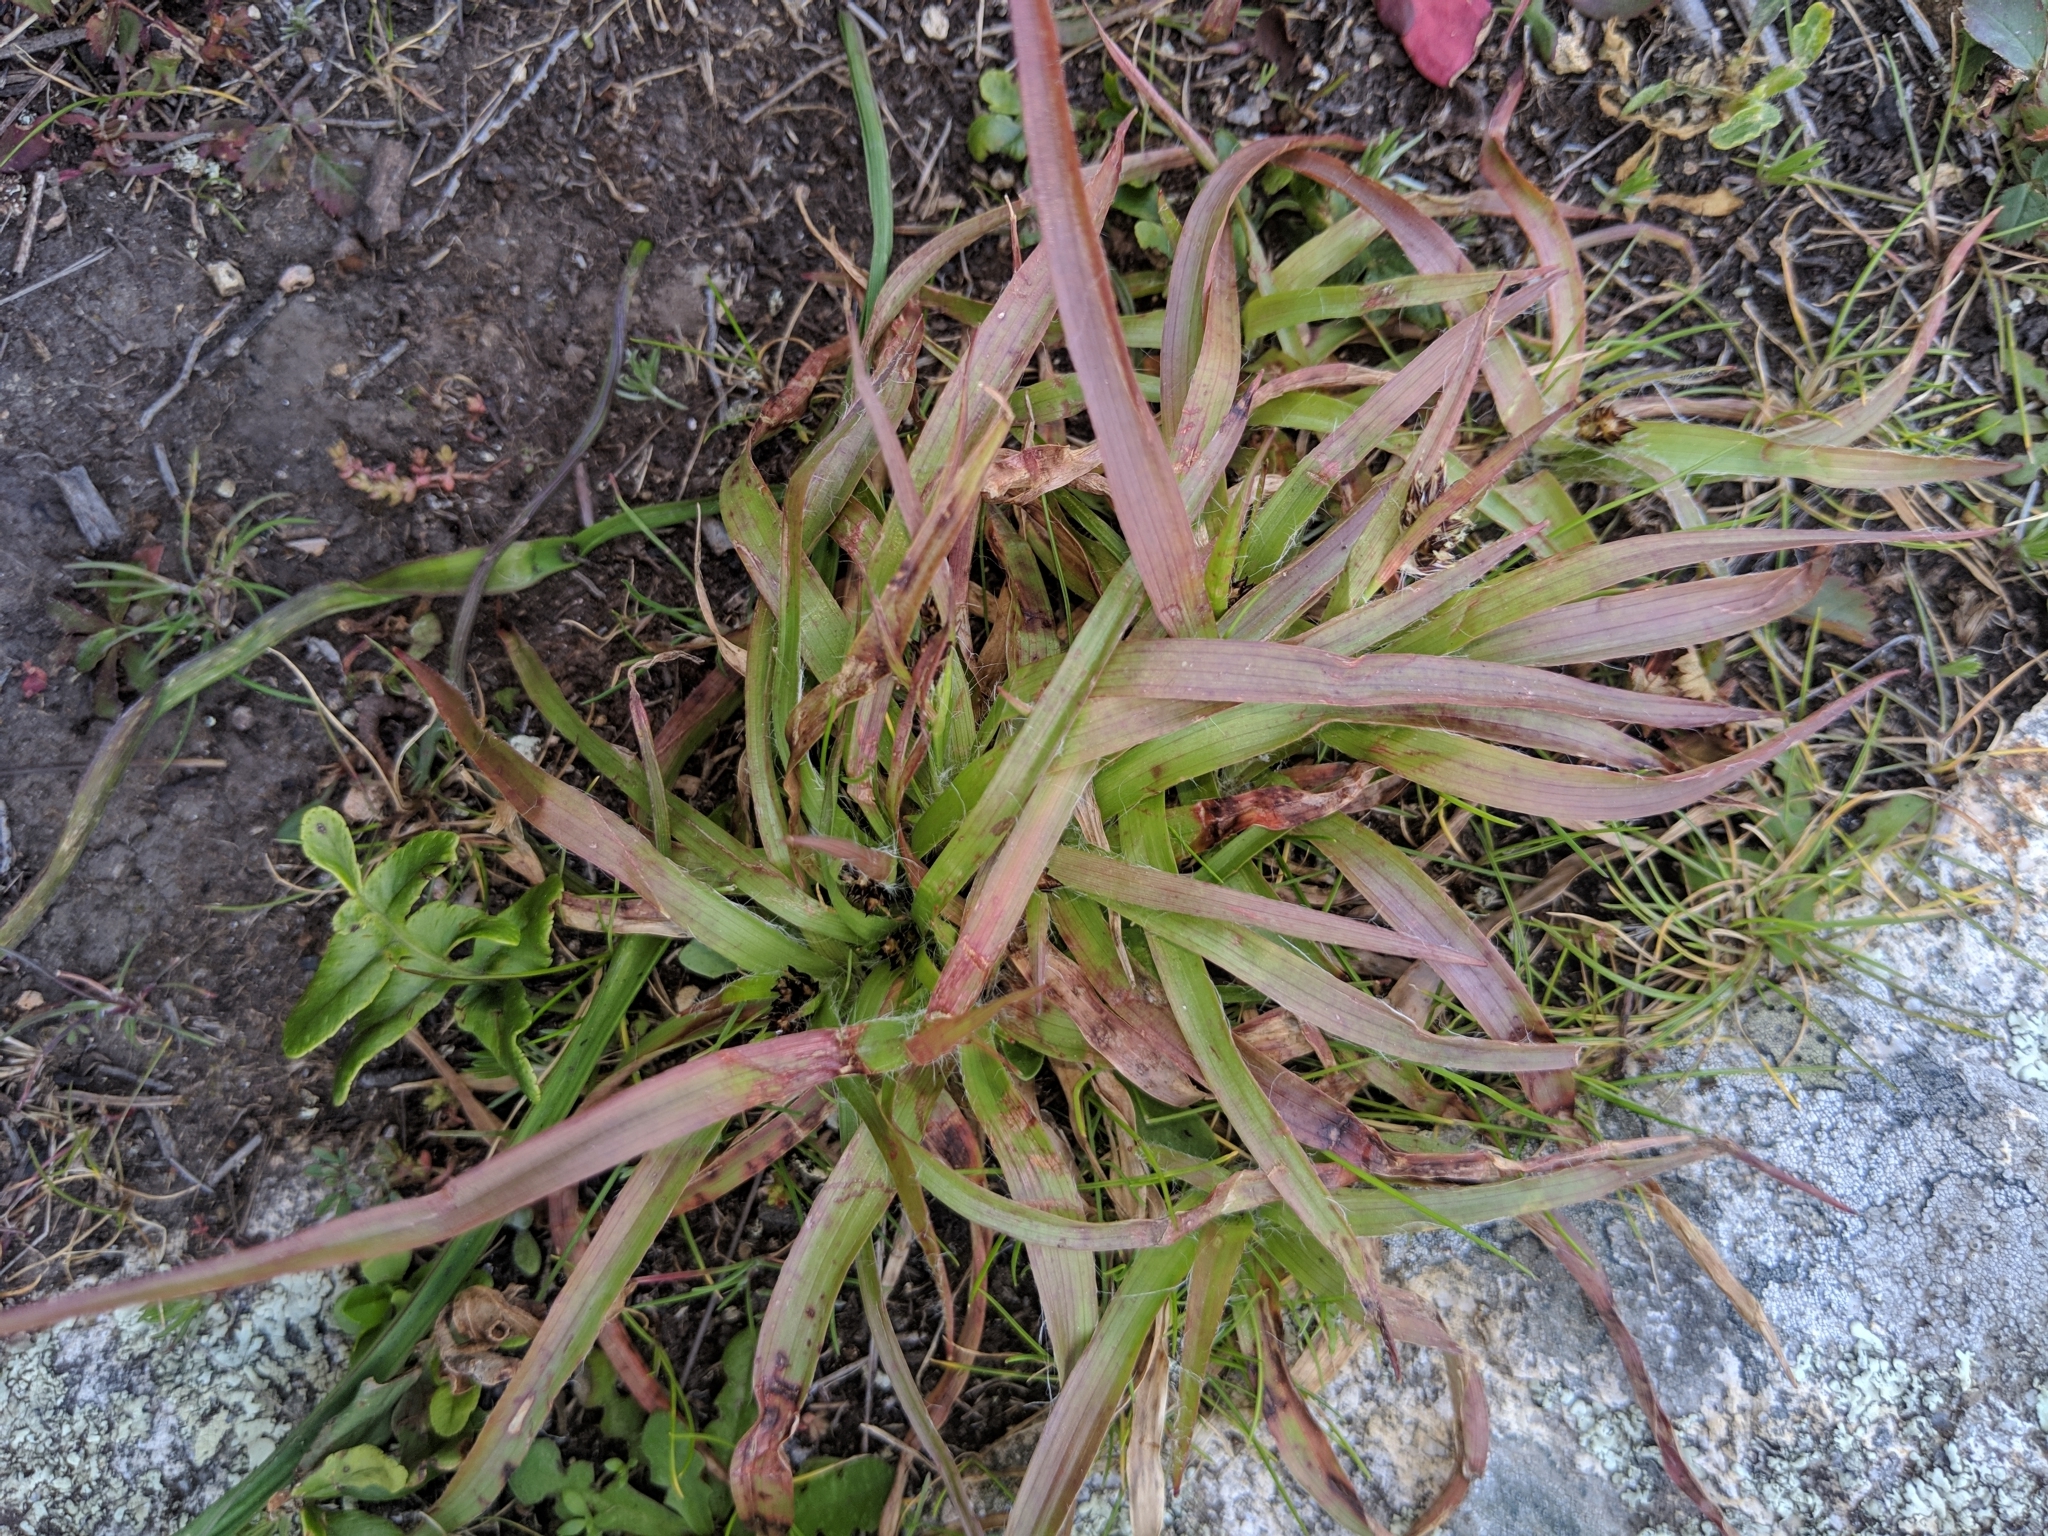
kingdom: Plantae
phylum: Tracheophyta
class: Liliopsida
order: Poales
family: Juncaceae
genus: Luzula
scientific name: Luzula macrantha
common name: Large-anthered woodrush
